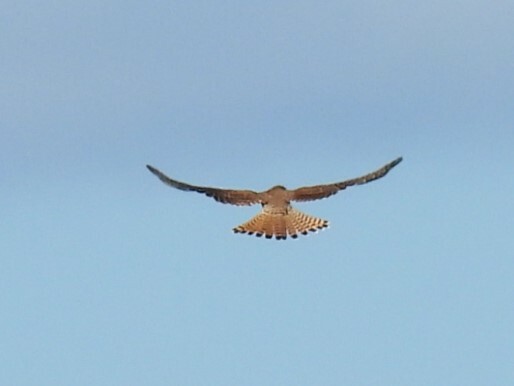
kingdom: Animalia
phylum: Chordata
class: Aves
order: Falconiformes
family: Falconidae
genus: Falco
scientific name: Falco tinnunculus
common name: Common kestrel
